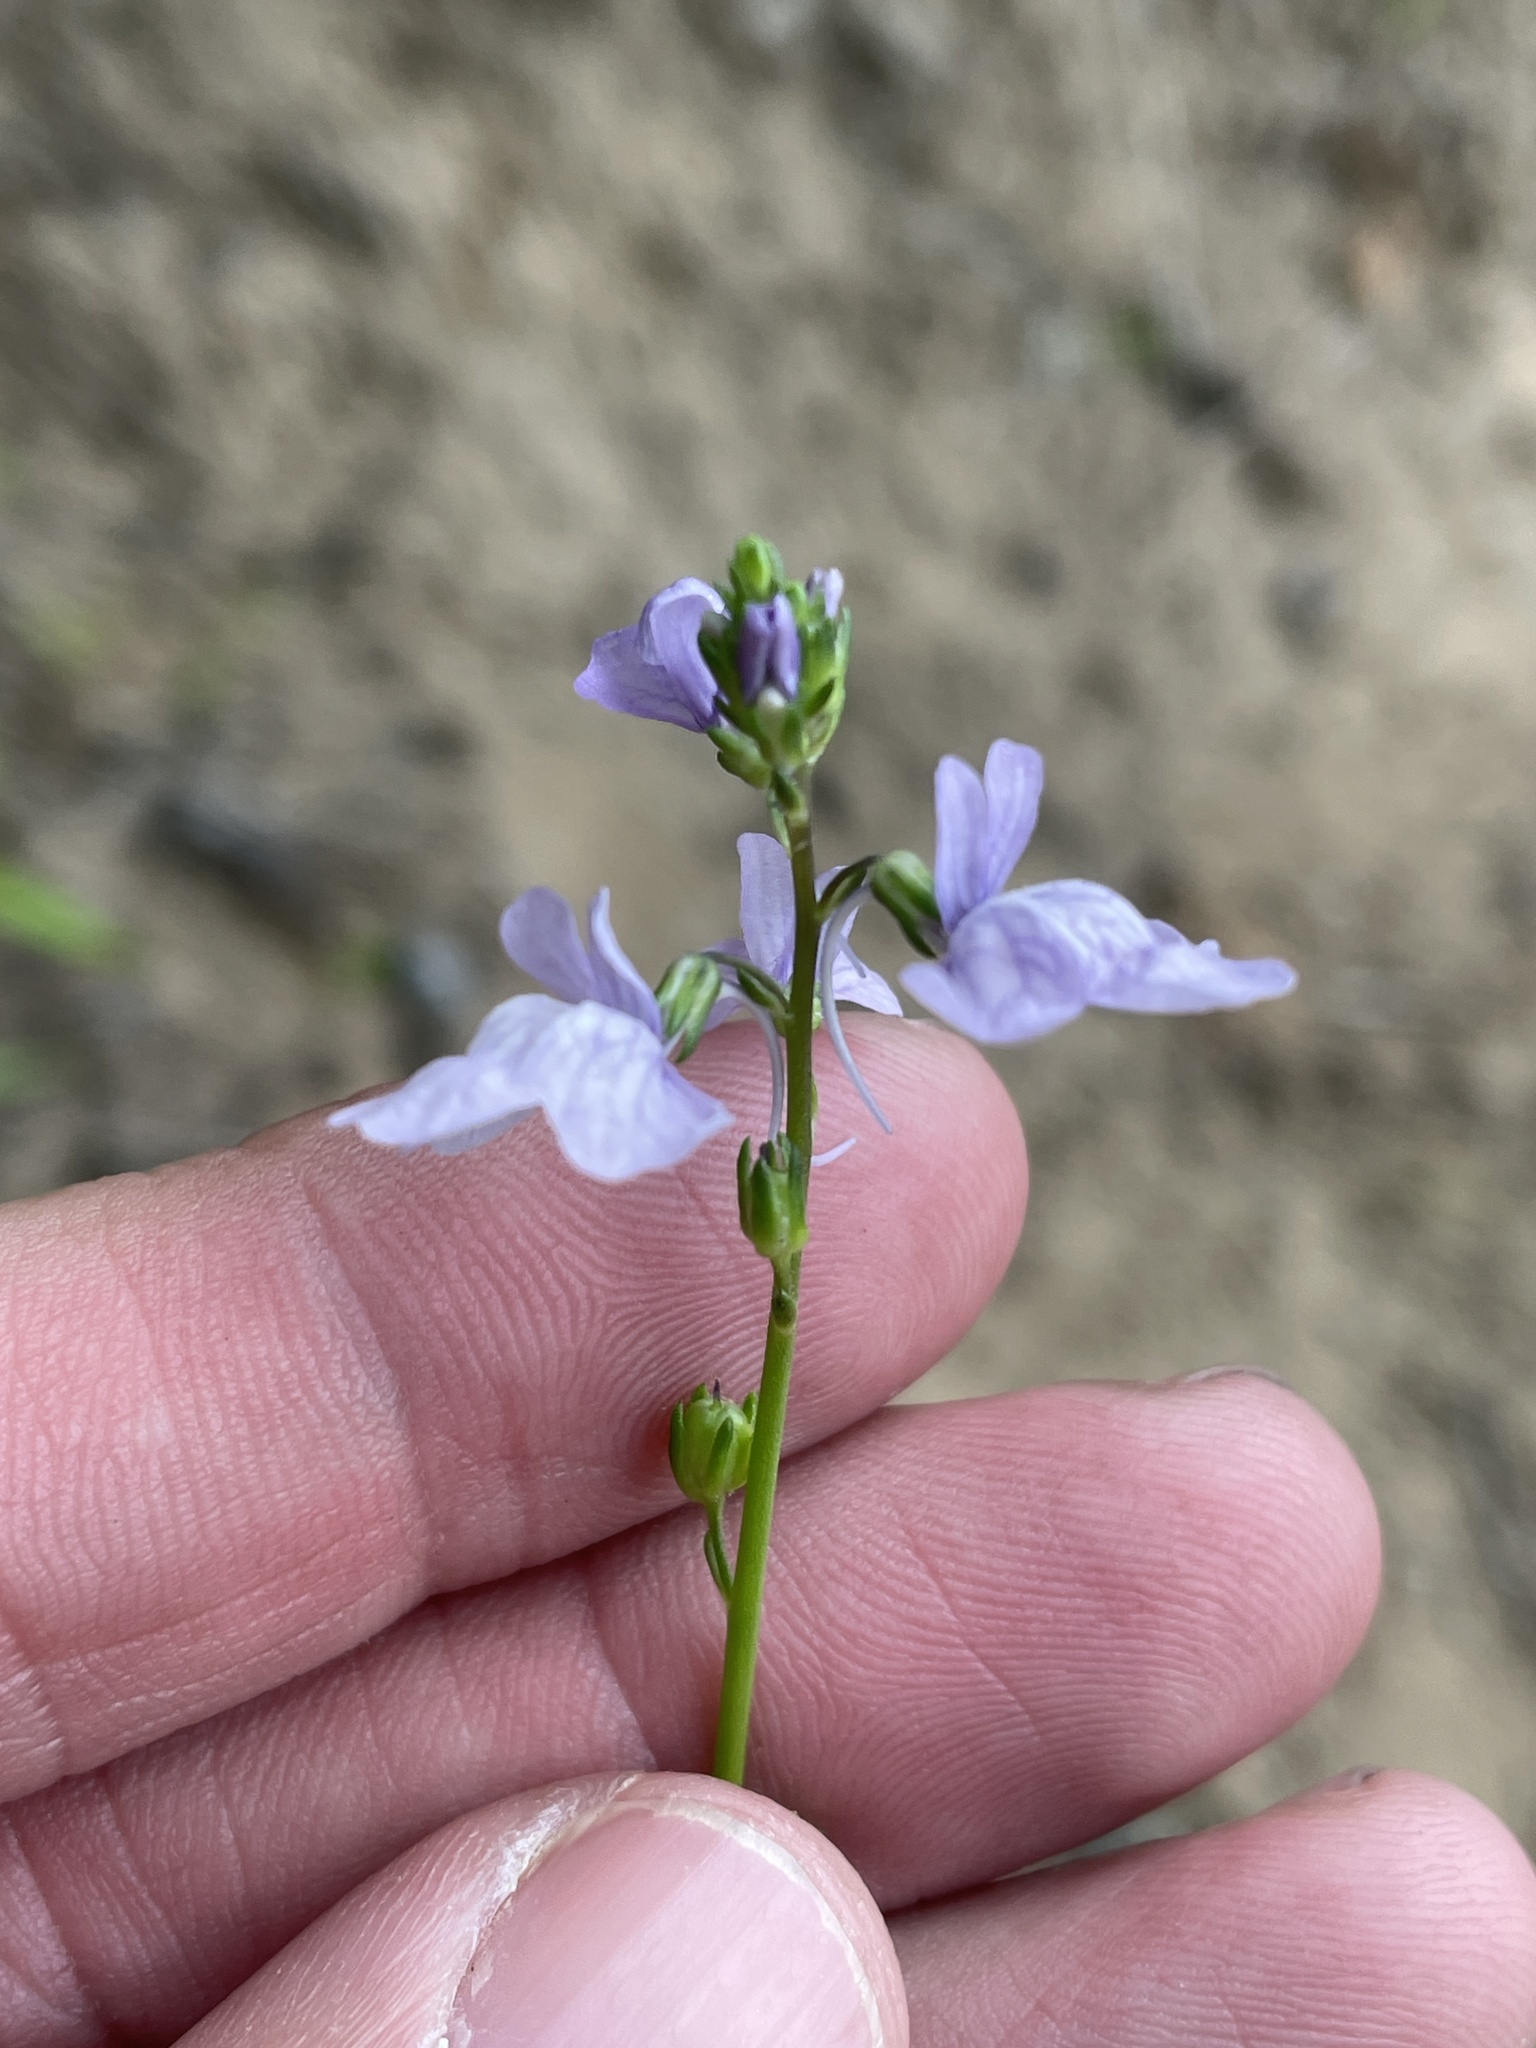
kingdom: Plantae
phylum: Tracheophyta
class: Magnoliopsida
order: Lamiales
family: Plantaginaceae
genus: Nuttallanthus
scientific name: Nuttallanthus texanus
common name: Texas toadflax
